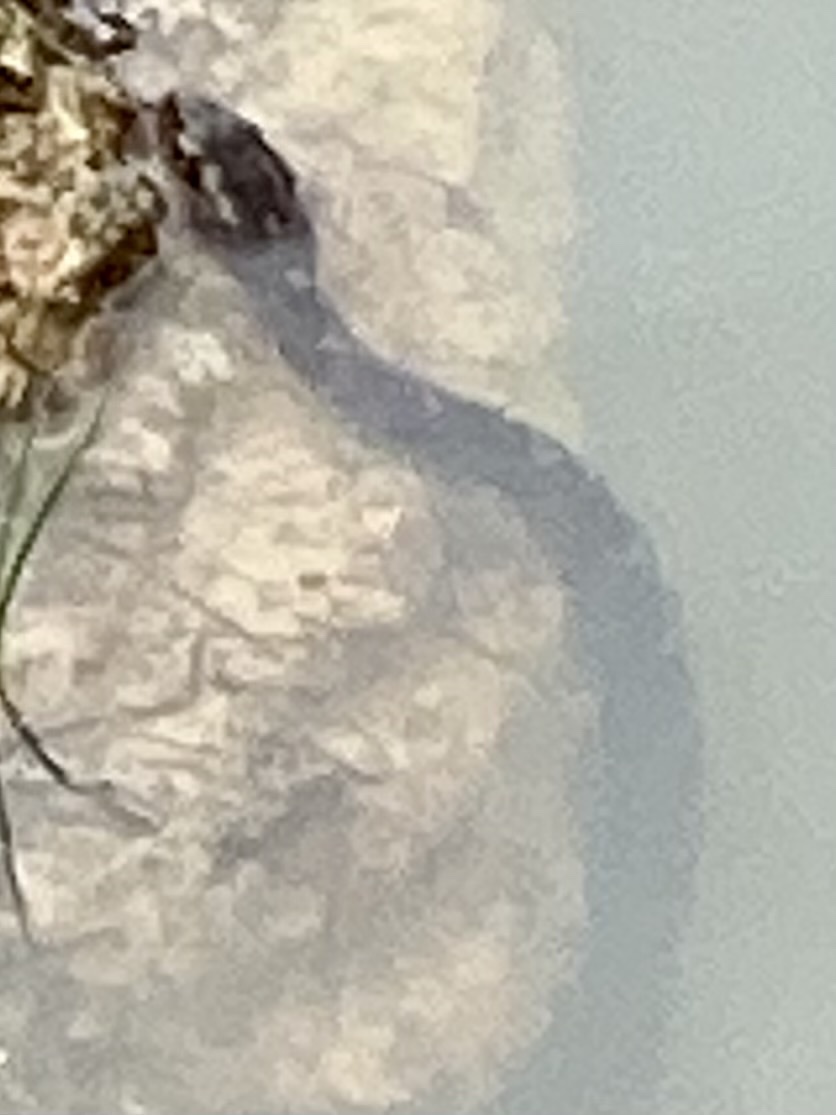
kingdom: Animalia
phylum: Chordata
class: Squamata
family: Viperidae
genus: Agkistrodon
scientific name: Agkistrodon piscivorus
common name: Cottonmouth
